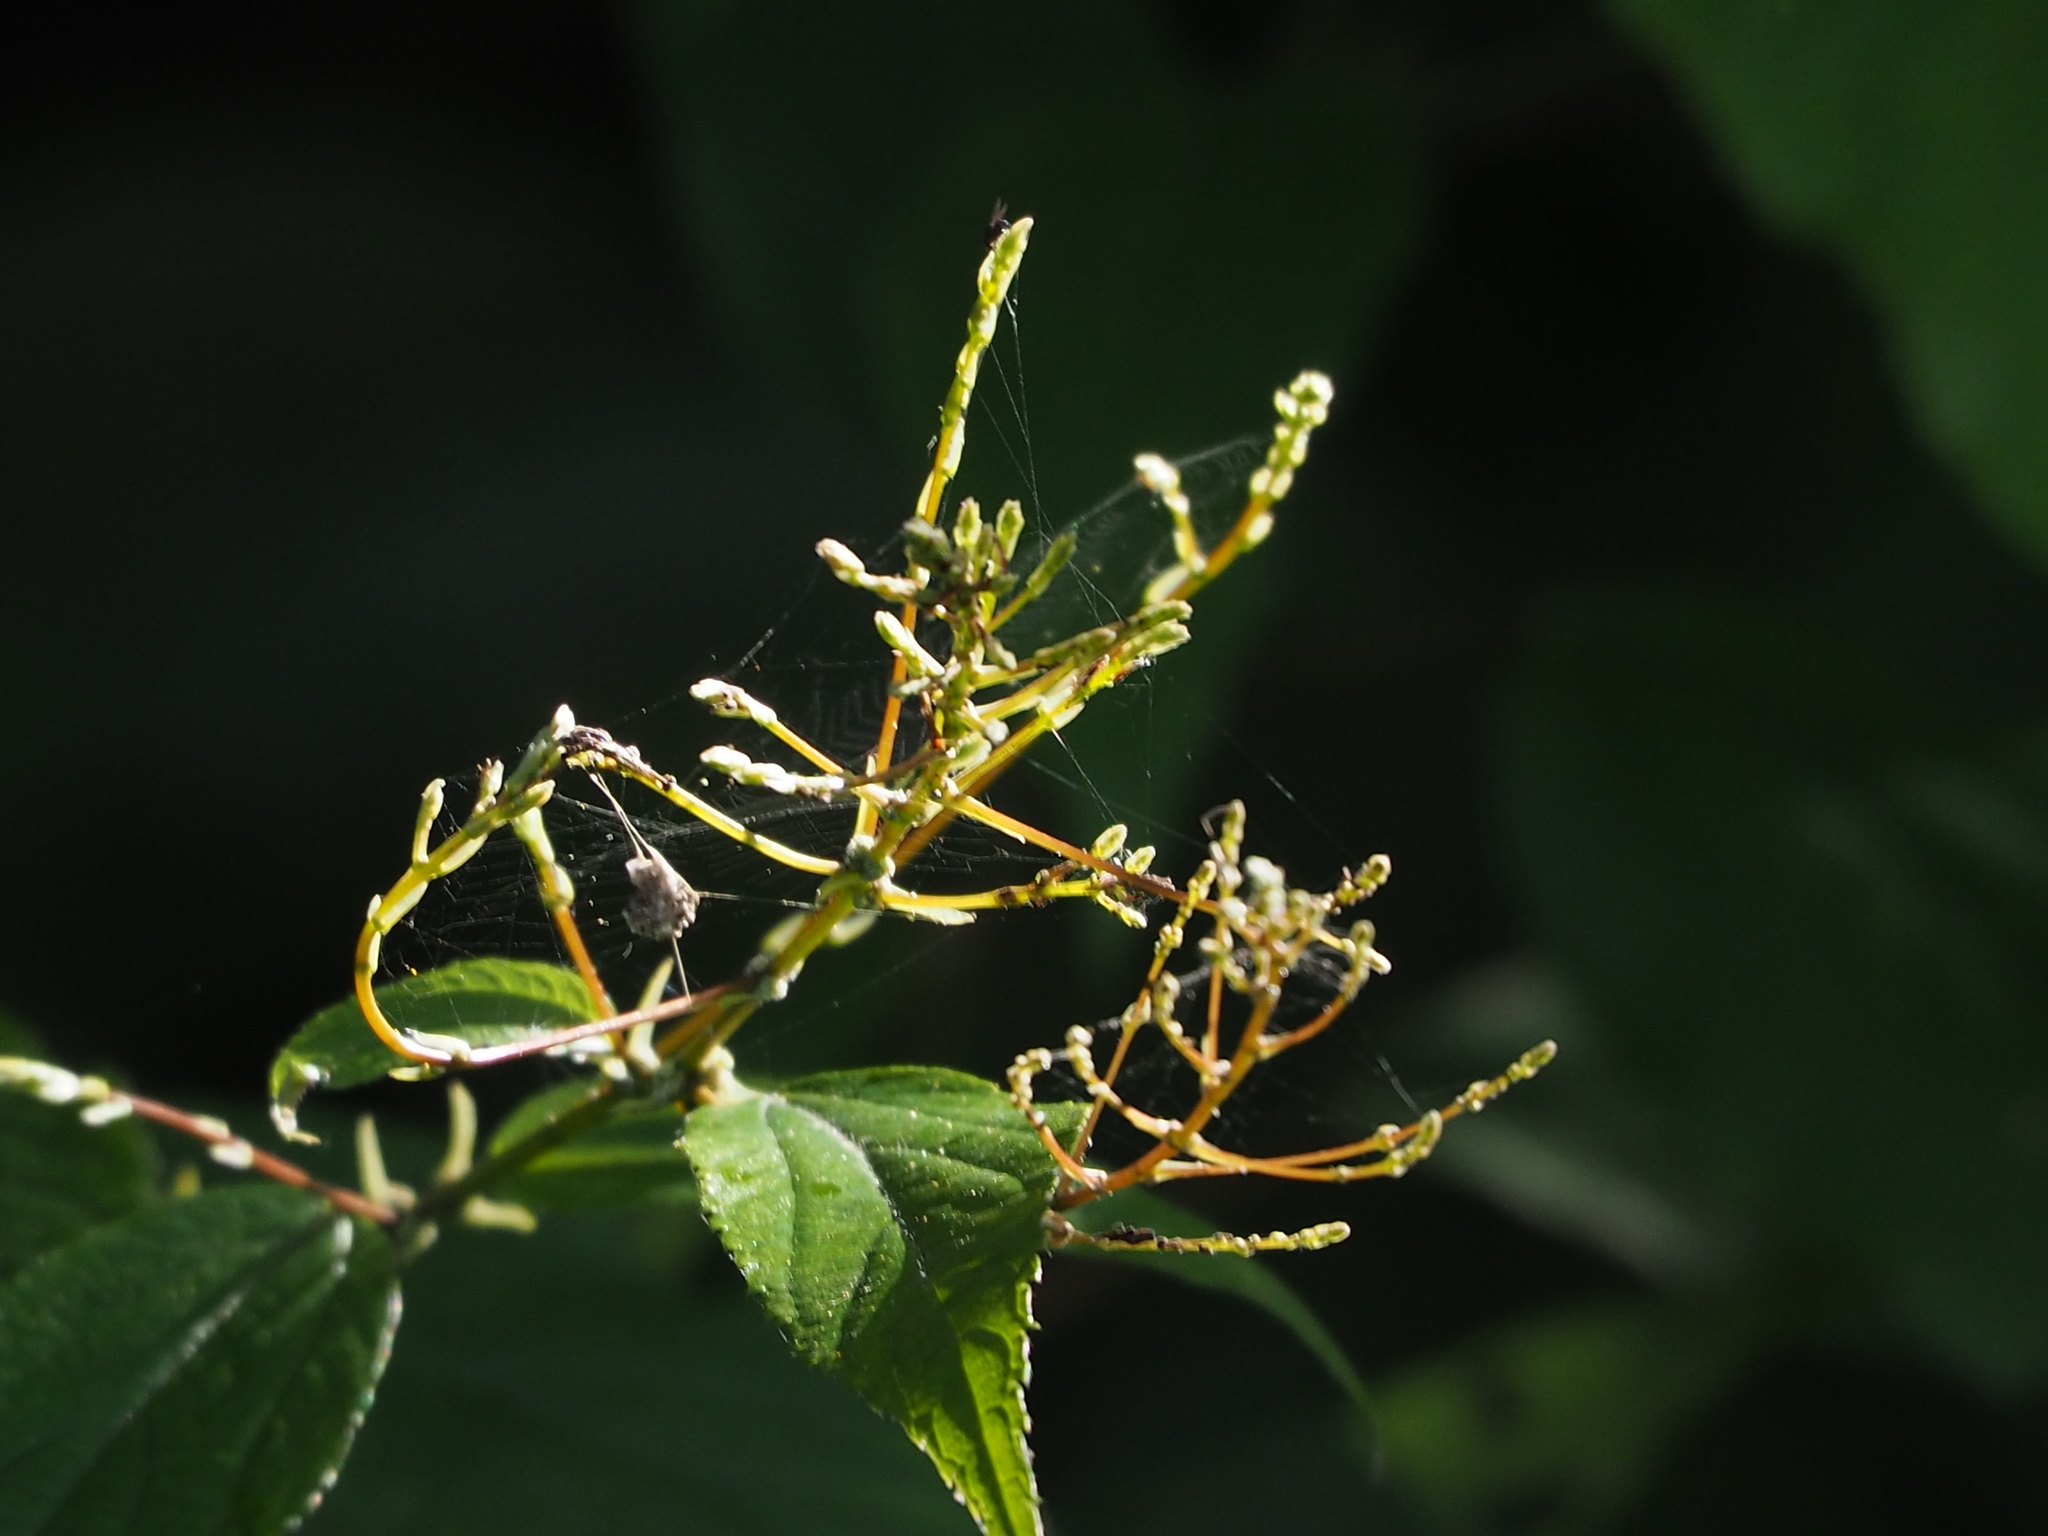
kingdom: Plantae
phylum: Tracheophyta
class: Magnoliopsida
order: Rosales
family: Urticaceae
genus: Boehmeria
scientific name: Boehmeria zollingeriana
